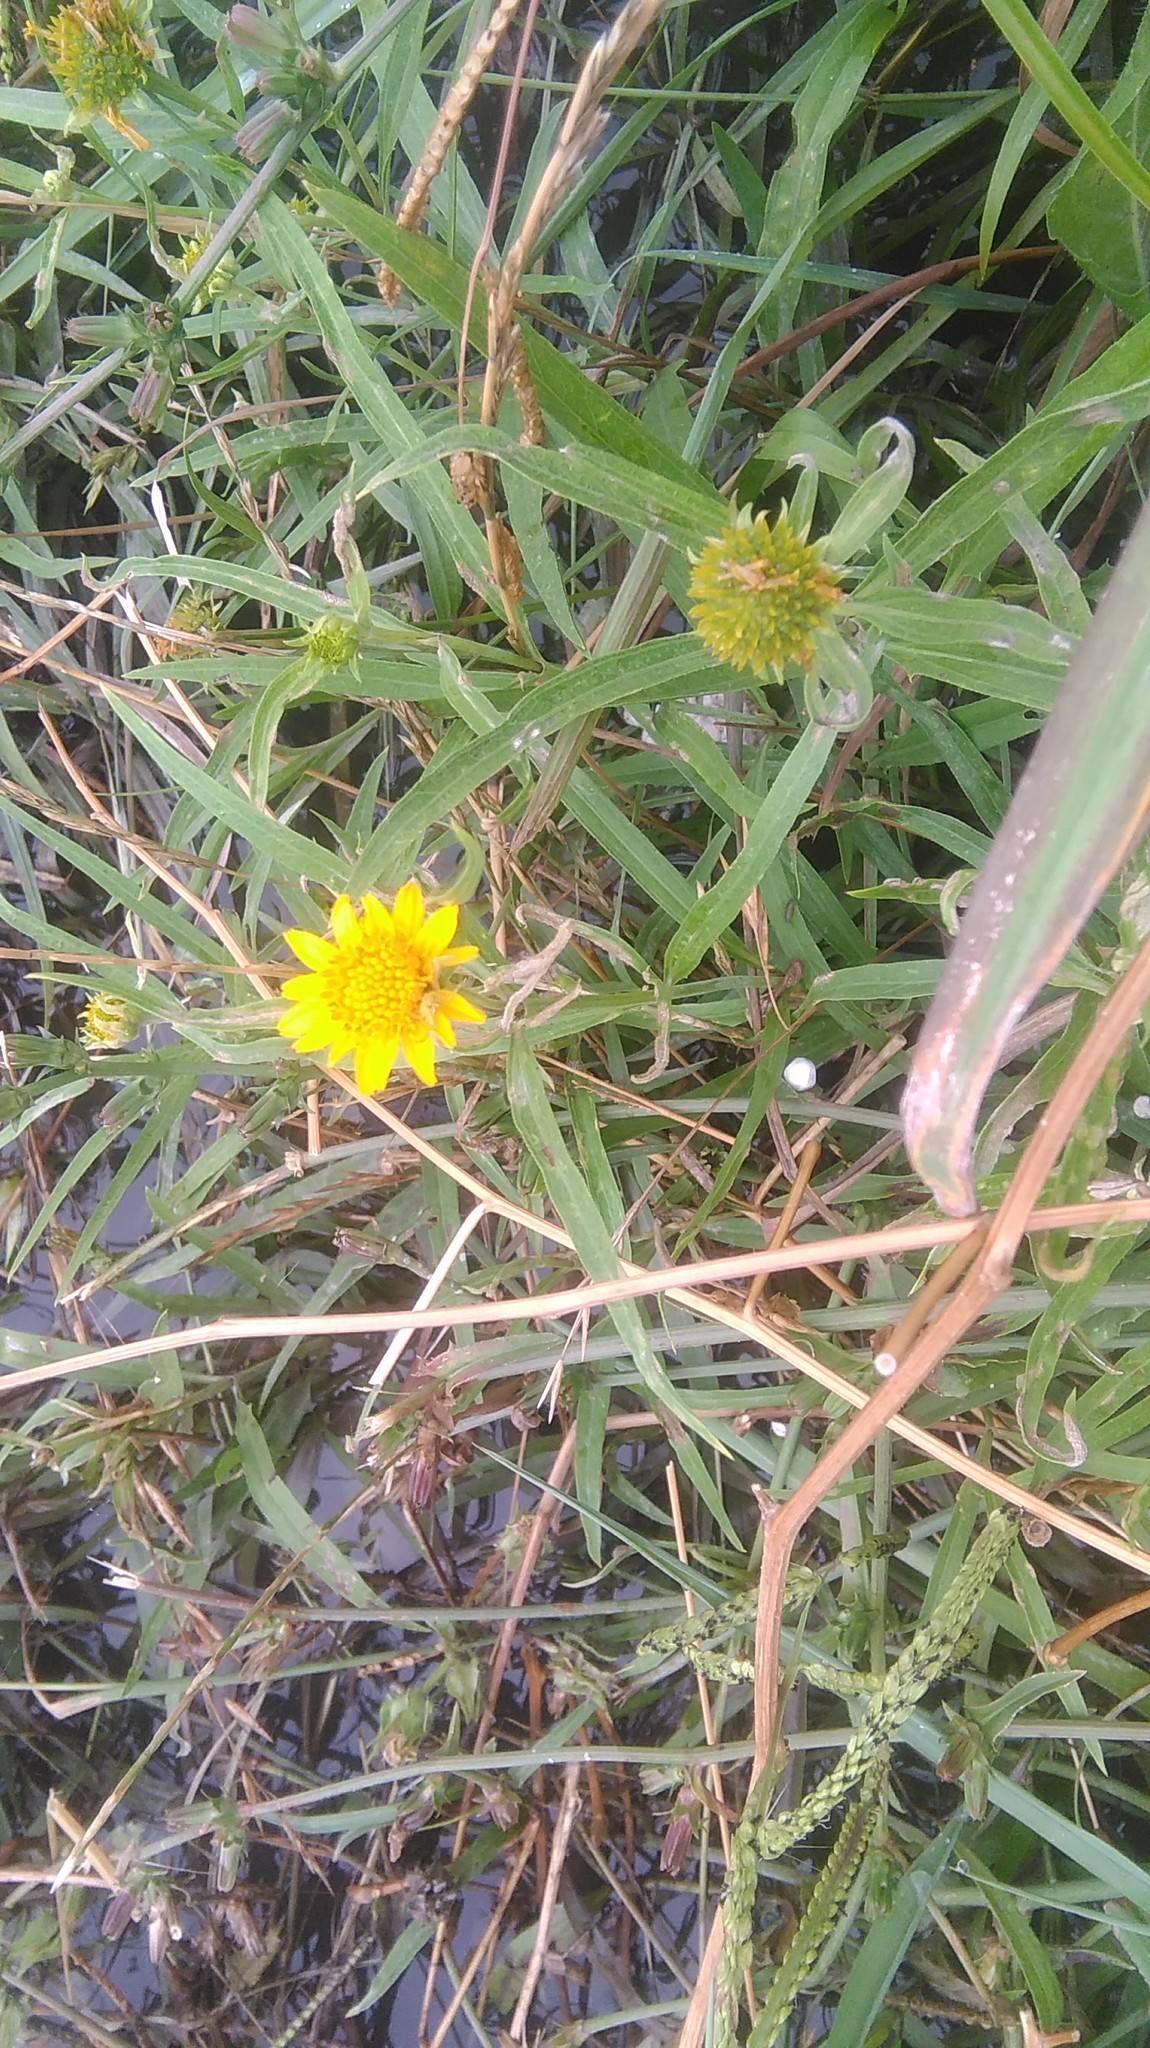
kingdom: Plantae
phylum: Tracheophyta
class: Magnoliopsida
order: Asterales
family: Asteraceae
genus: Pascalia
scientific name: Pascalia glauca
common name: Beach creeping oxeye
